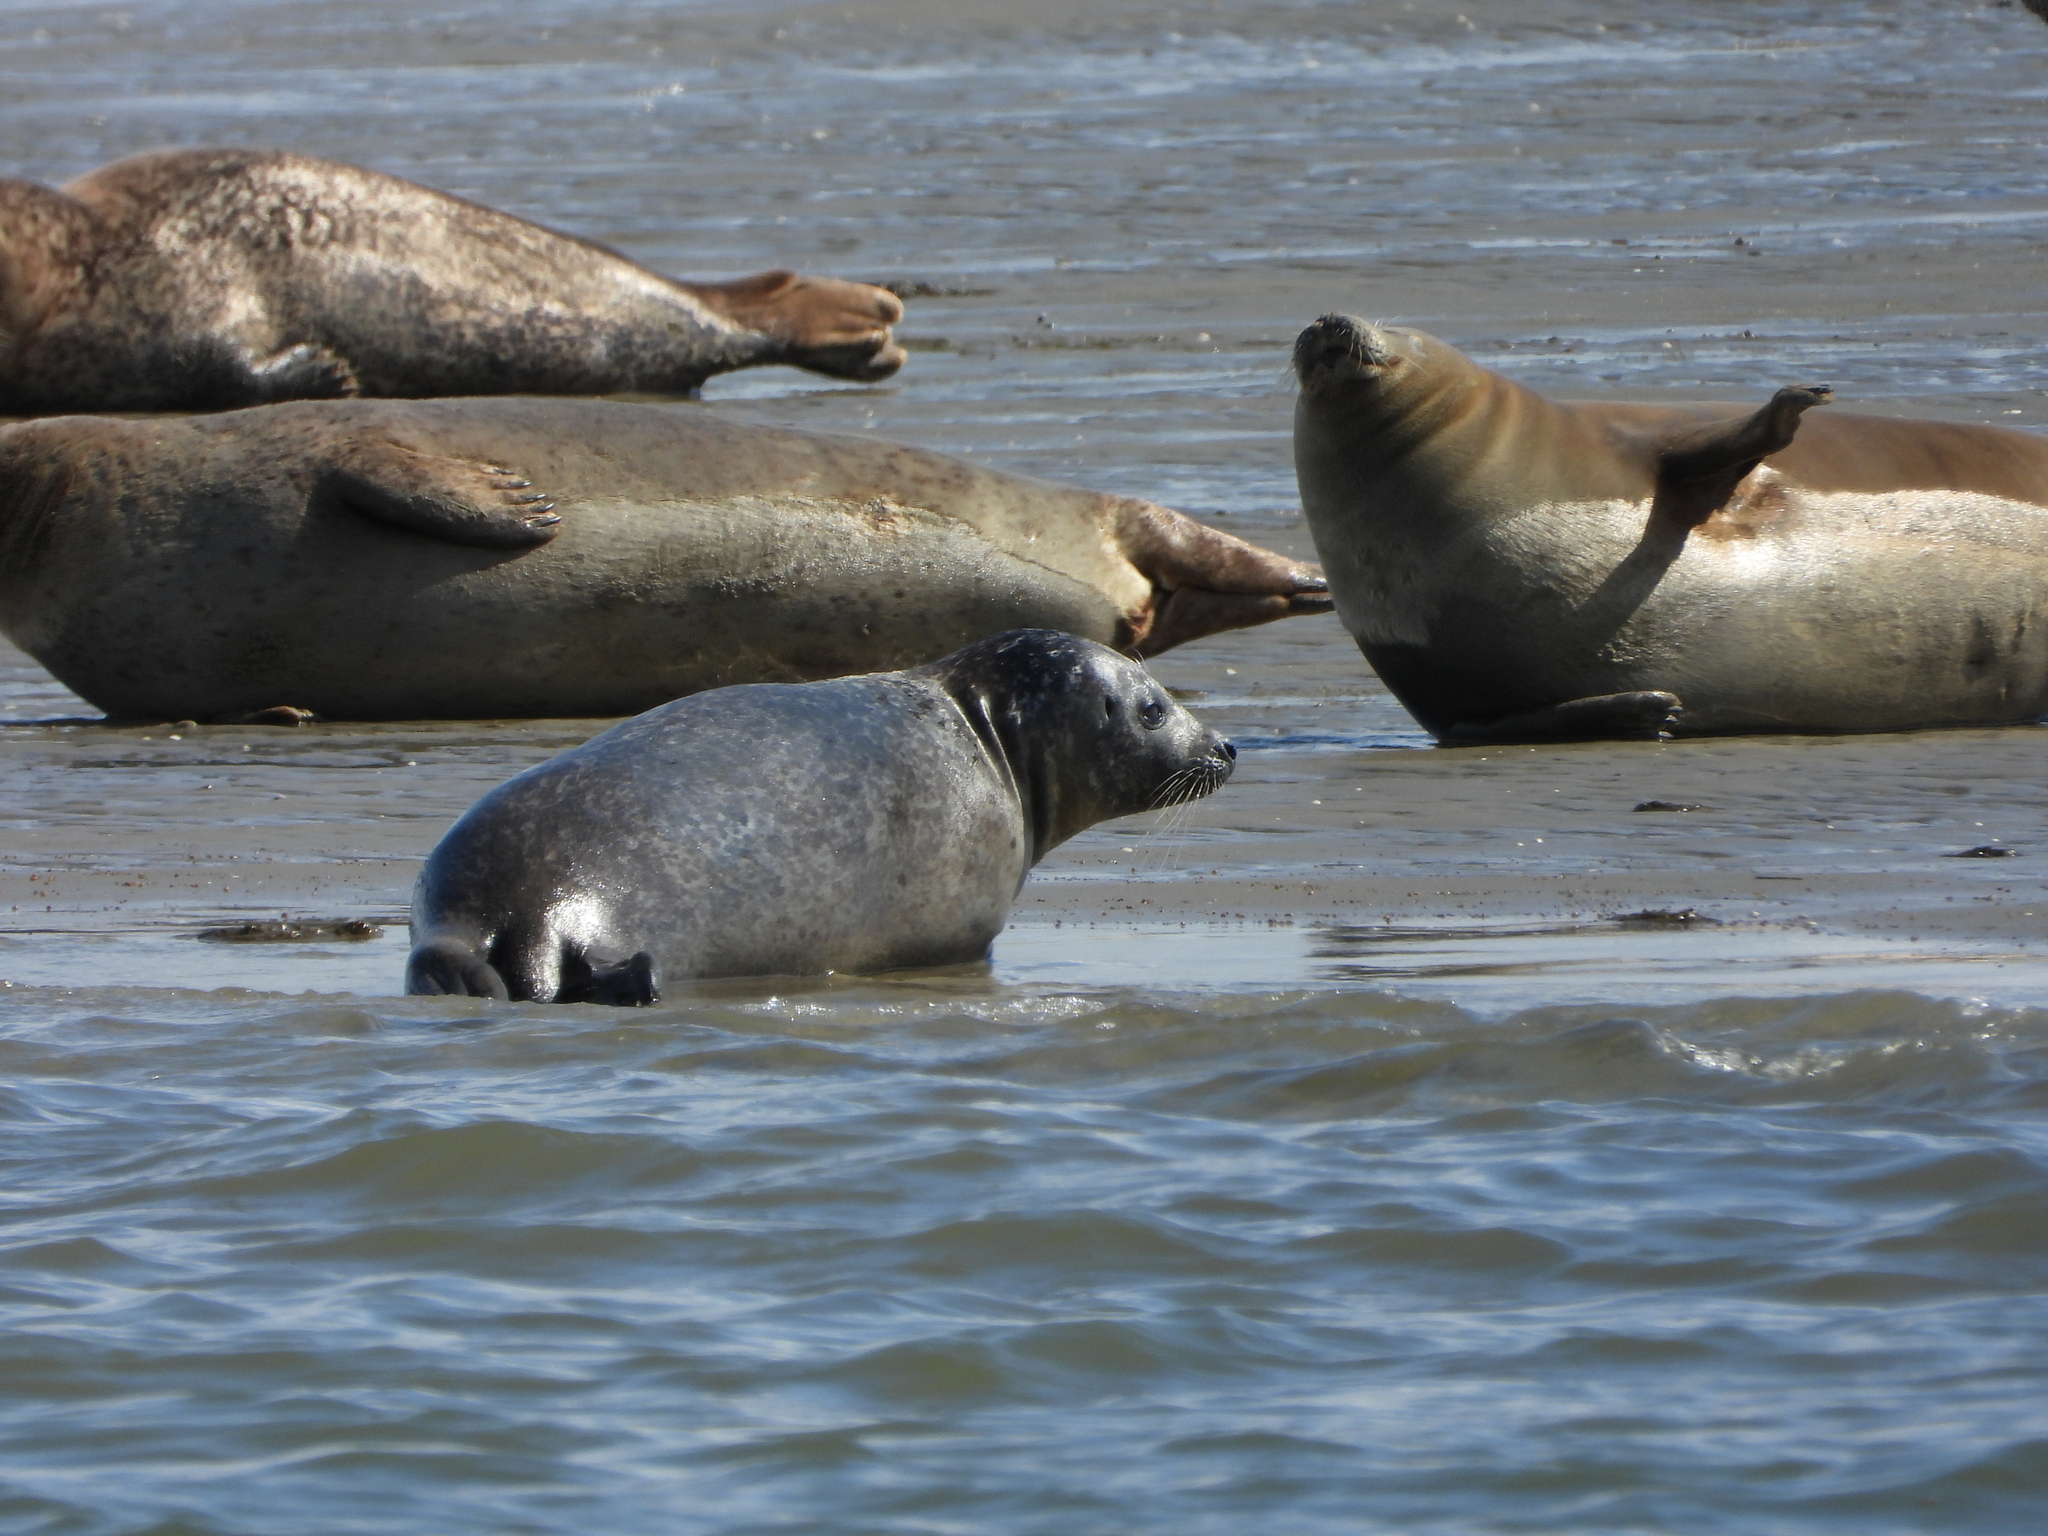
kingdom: Animalia
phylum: Chordata
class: Mammalia
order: Carnivora
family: Phocidae
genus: Phoca
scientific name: Phoca vitulina
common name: Harbor seal
